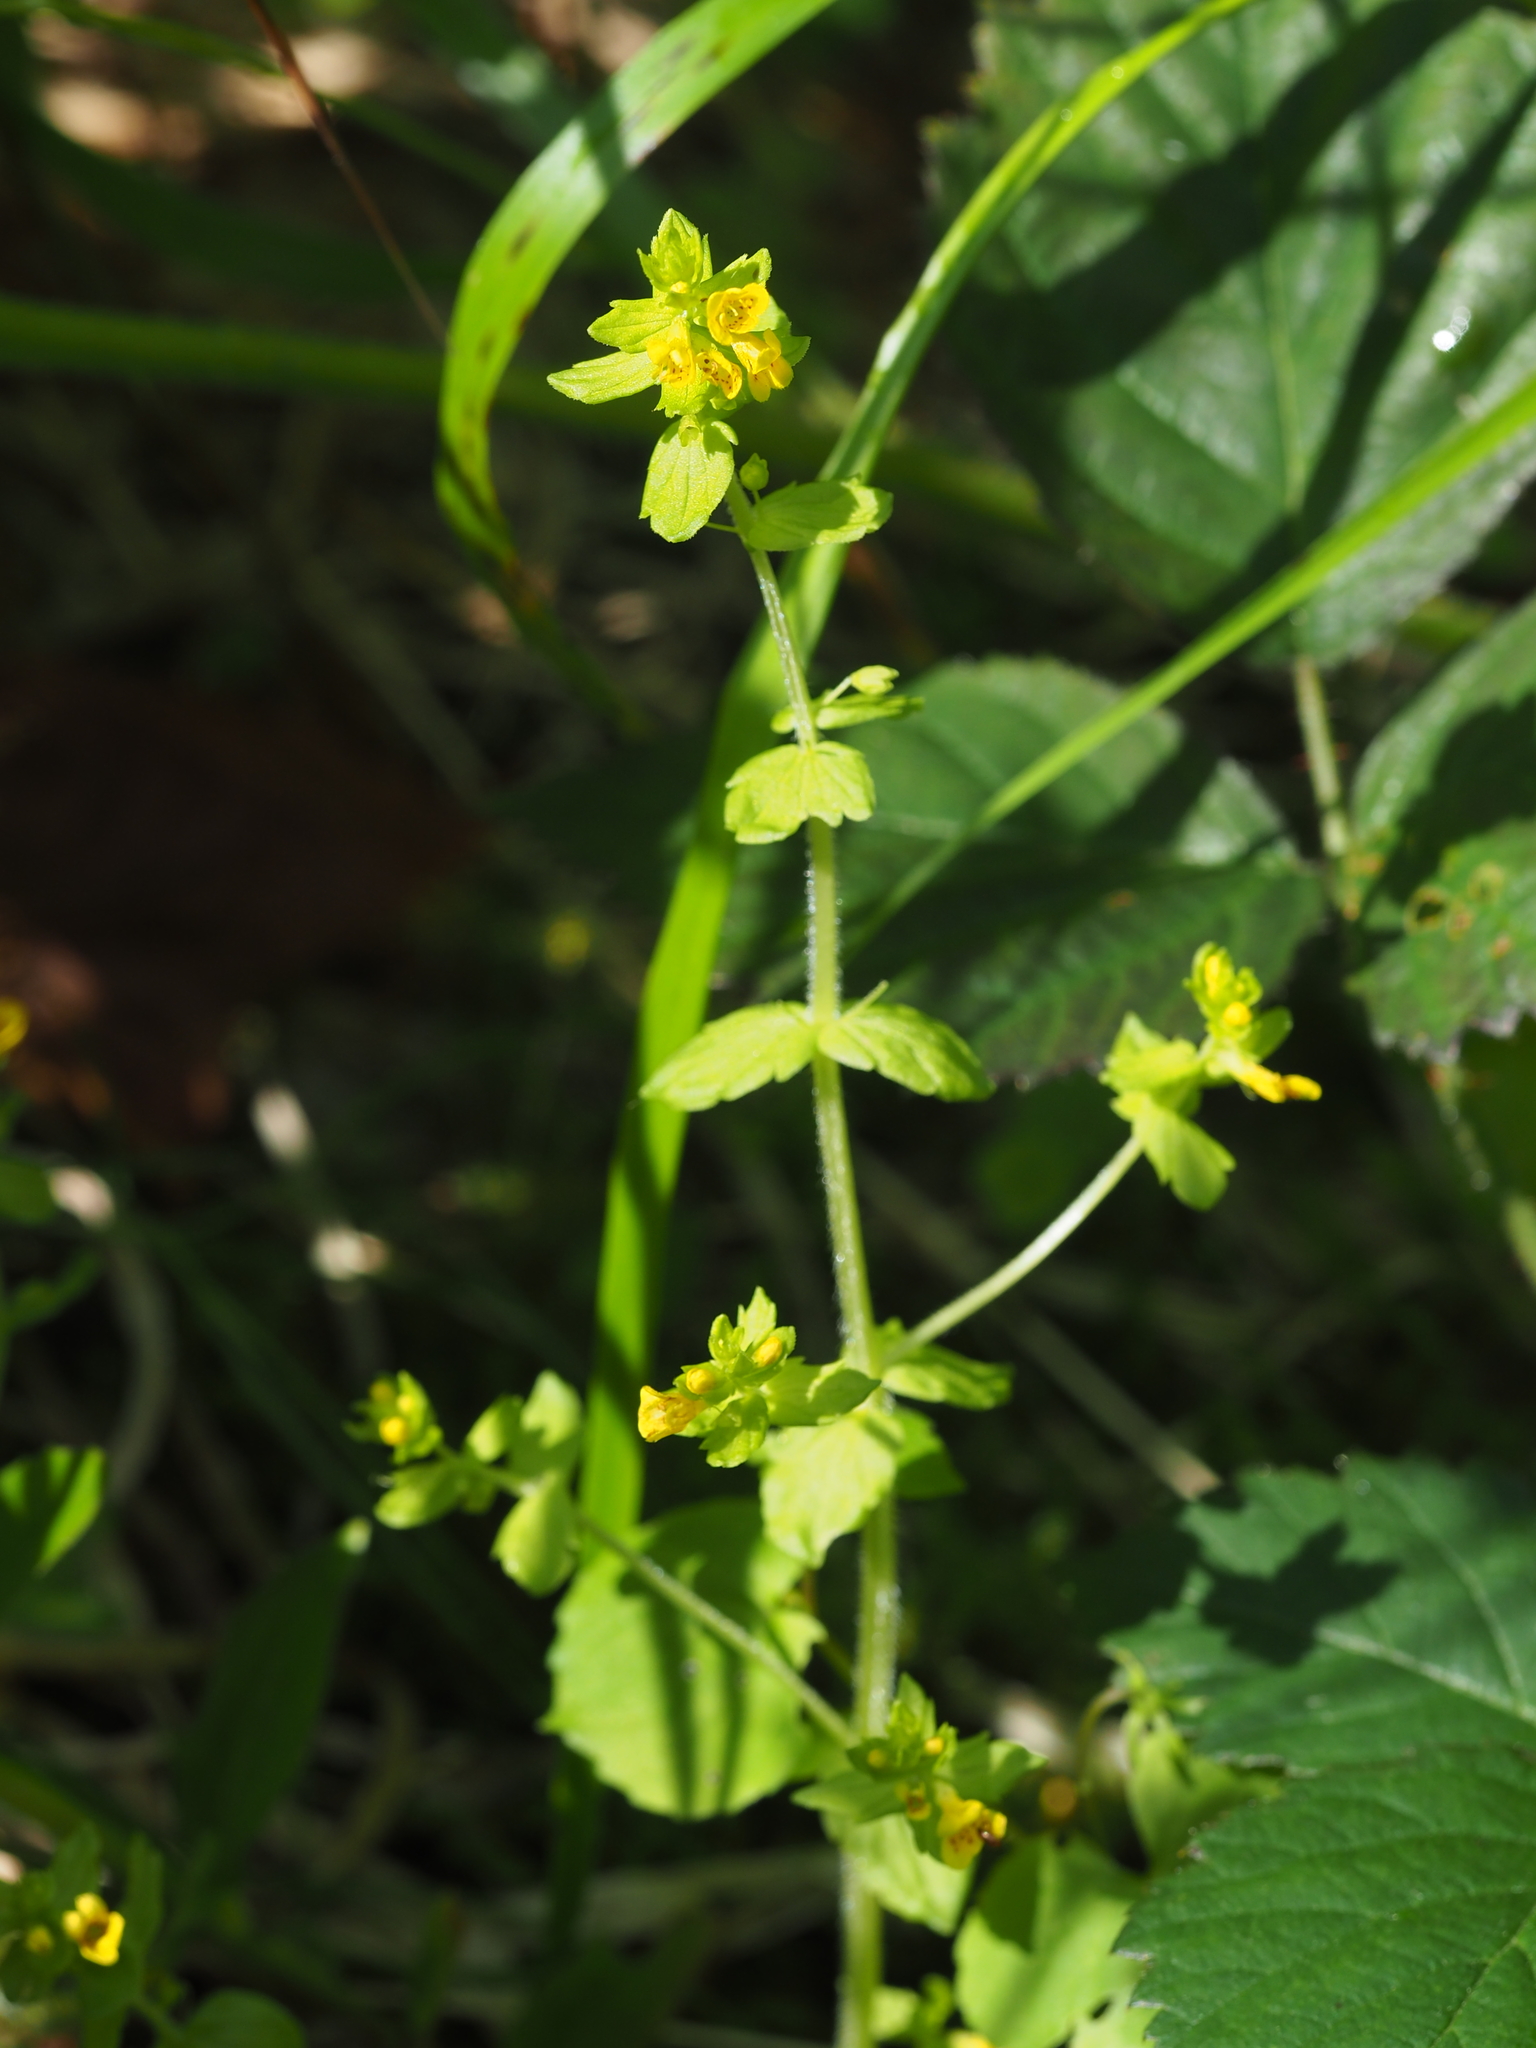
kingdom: Plantae
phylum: Tracheophyta
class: Magnoliopsida
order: Lamiales
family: Orobanchaceae
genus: Tozzia
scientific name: Tozzia alpina
